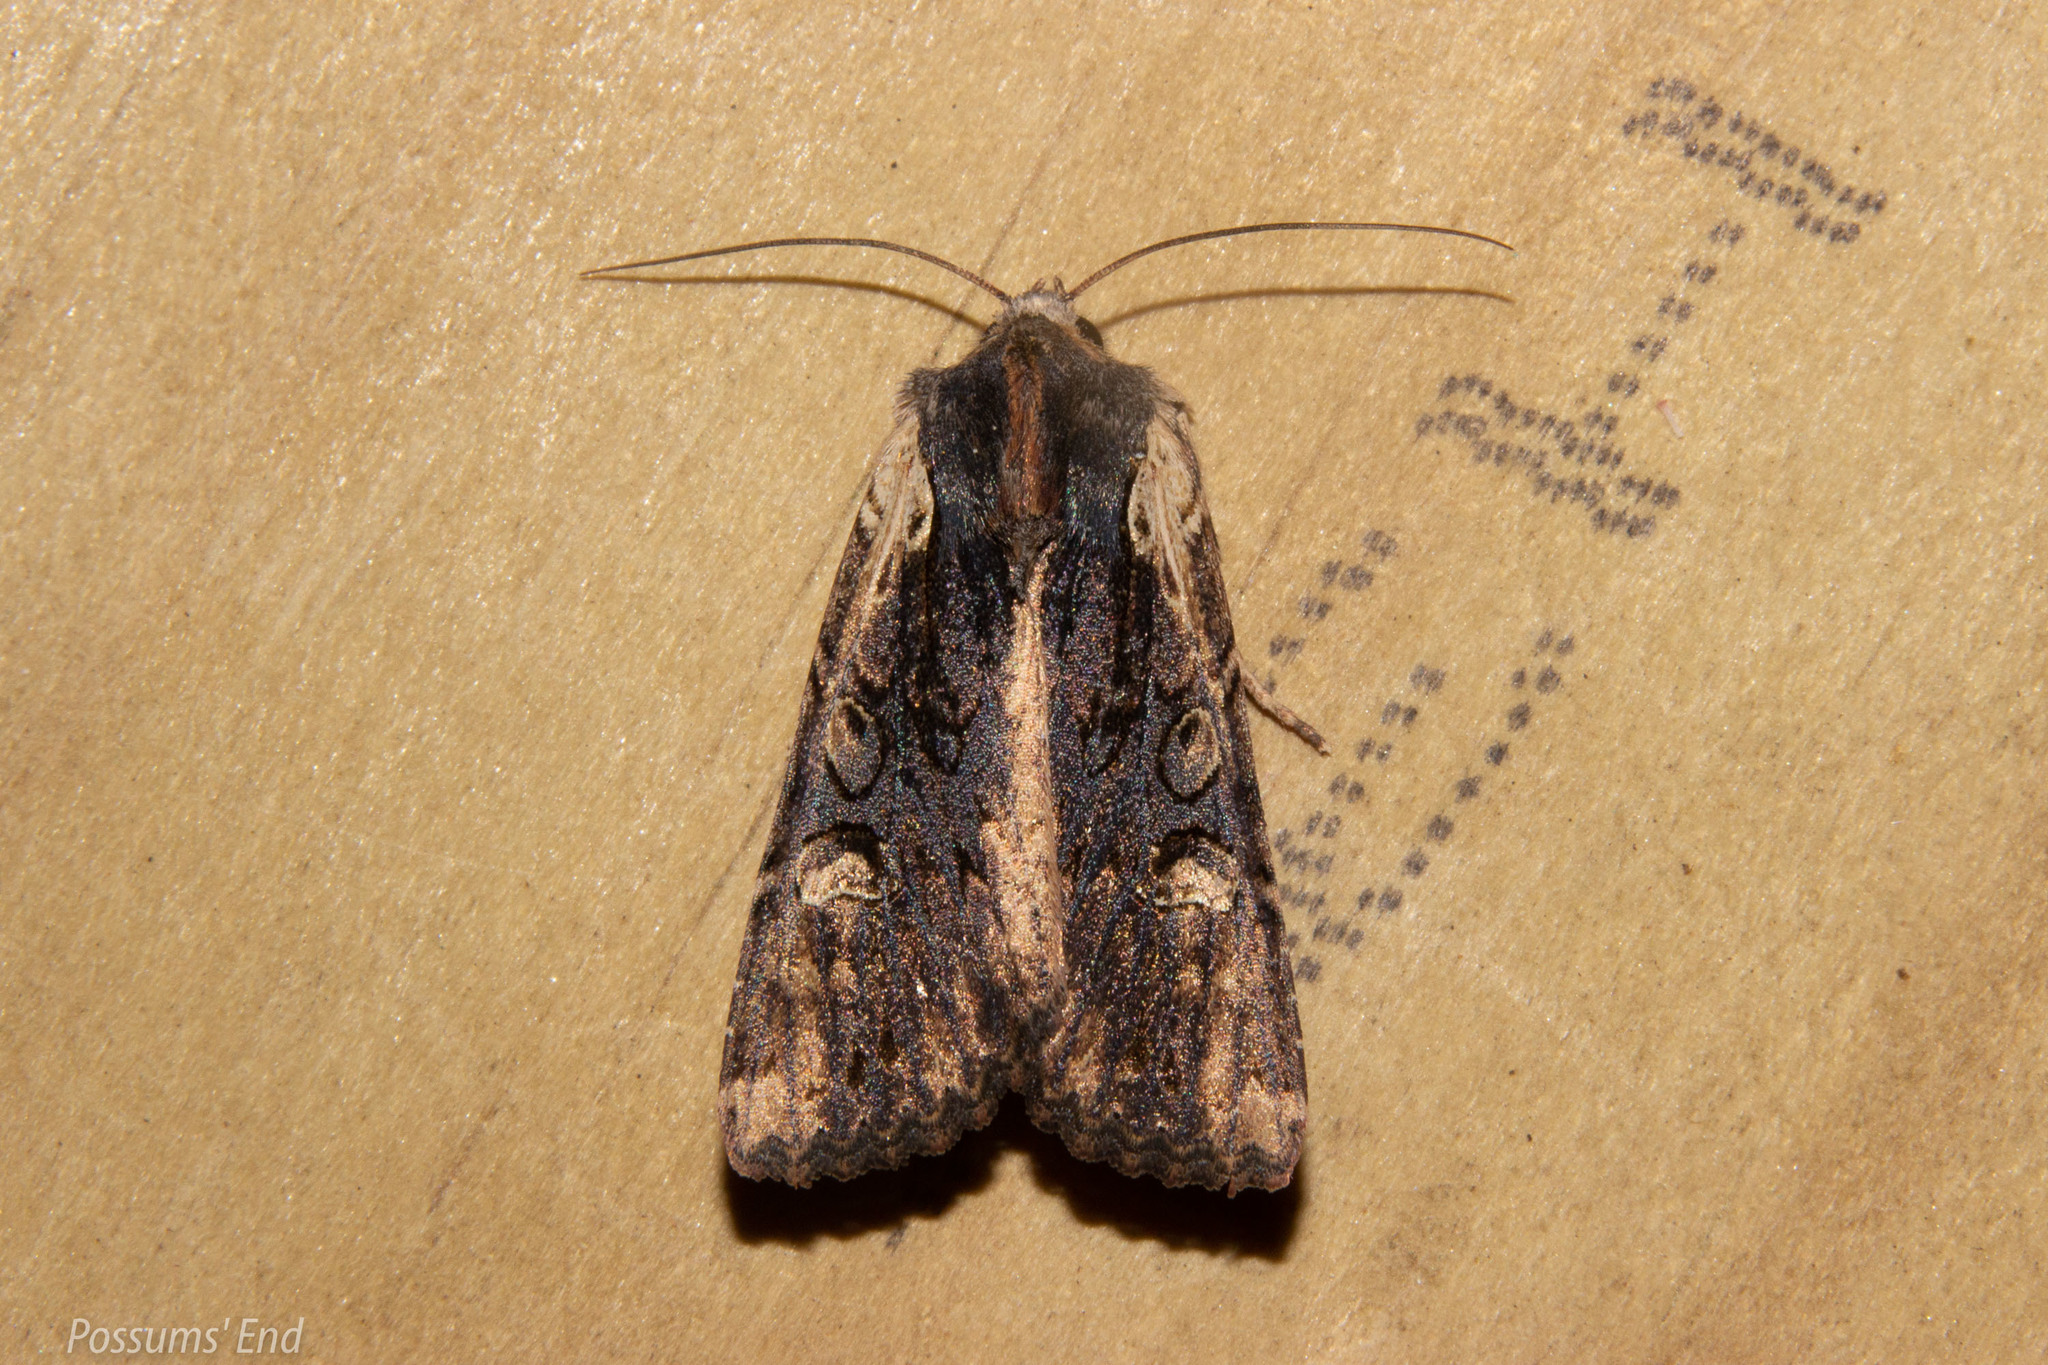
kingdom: Animalia
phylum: Arthropoda
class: Insecta
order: Lepidoptera
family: Noctuidae
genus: Ichneutica
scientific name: Ichneutica omoplaca
